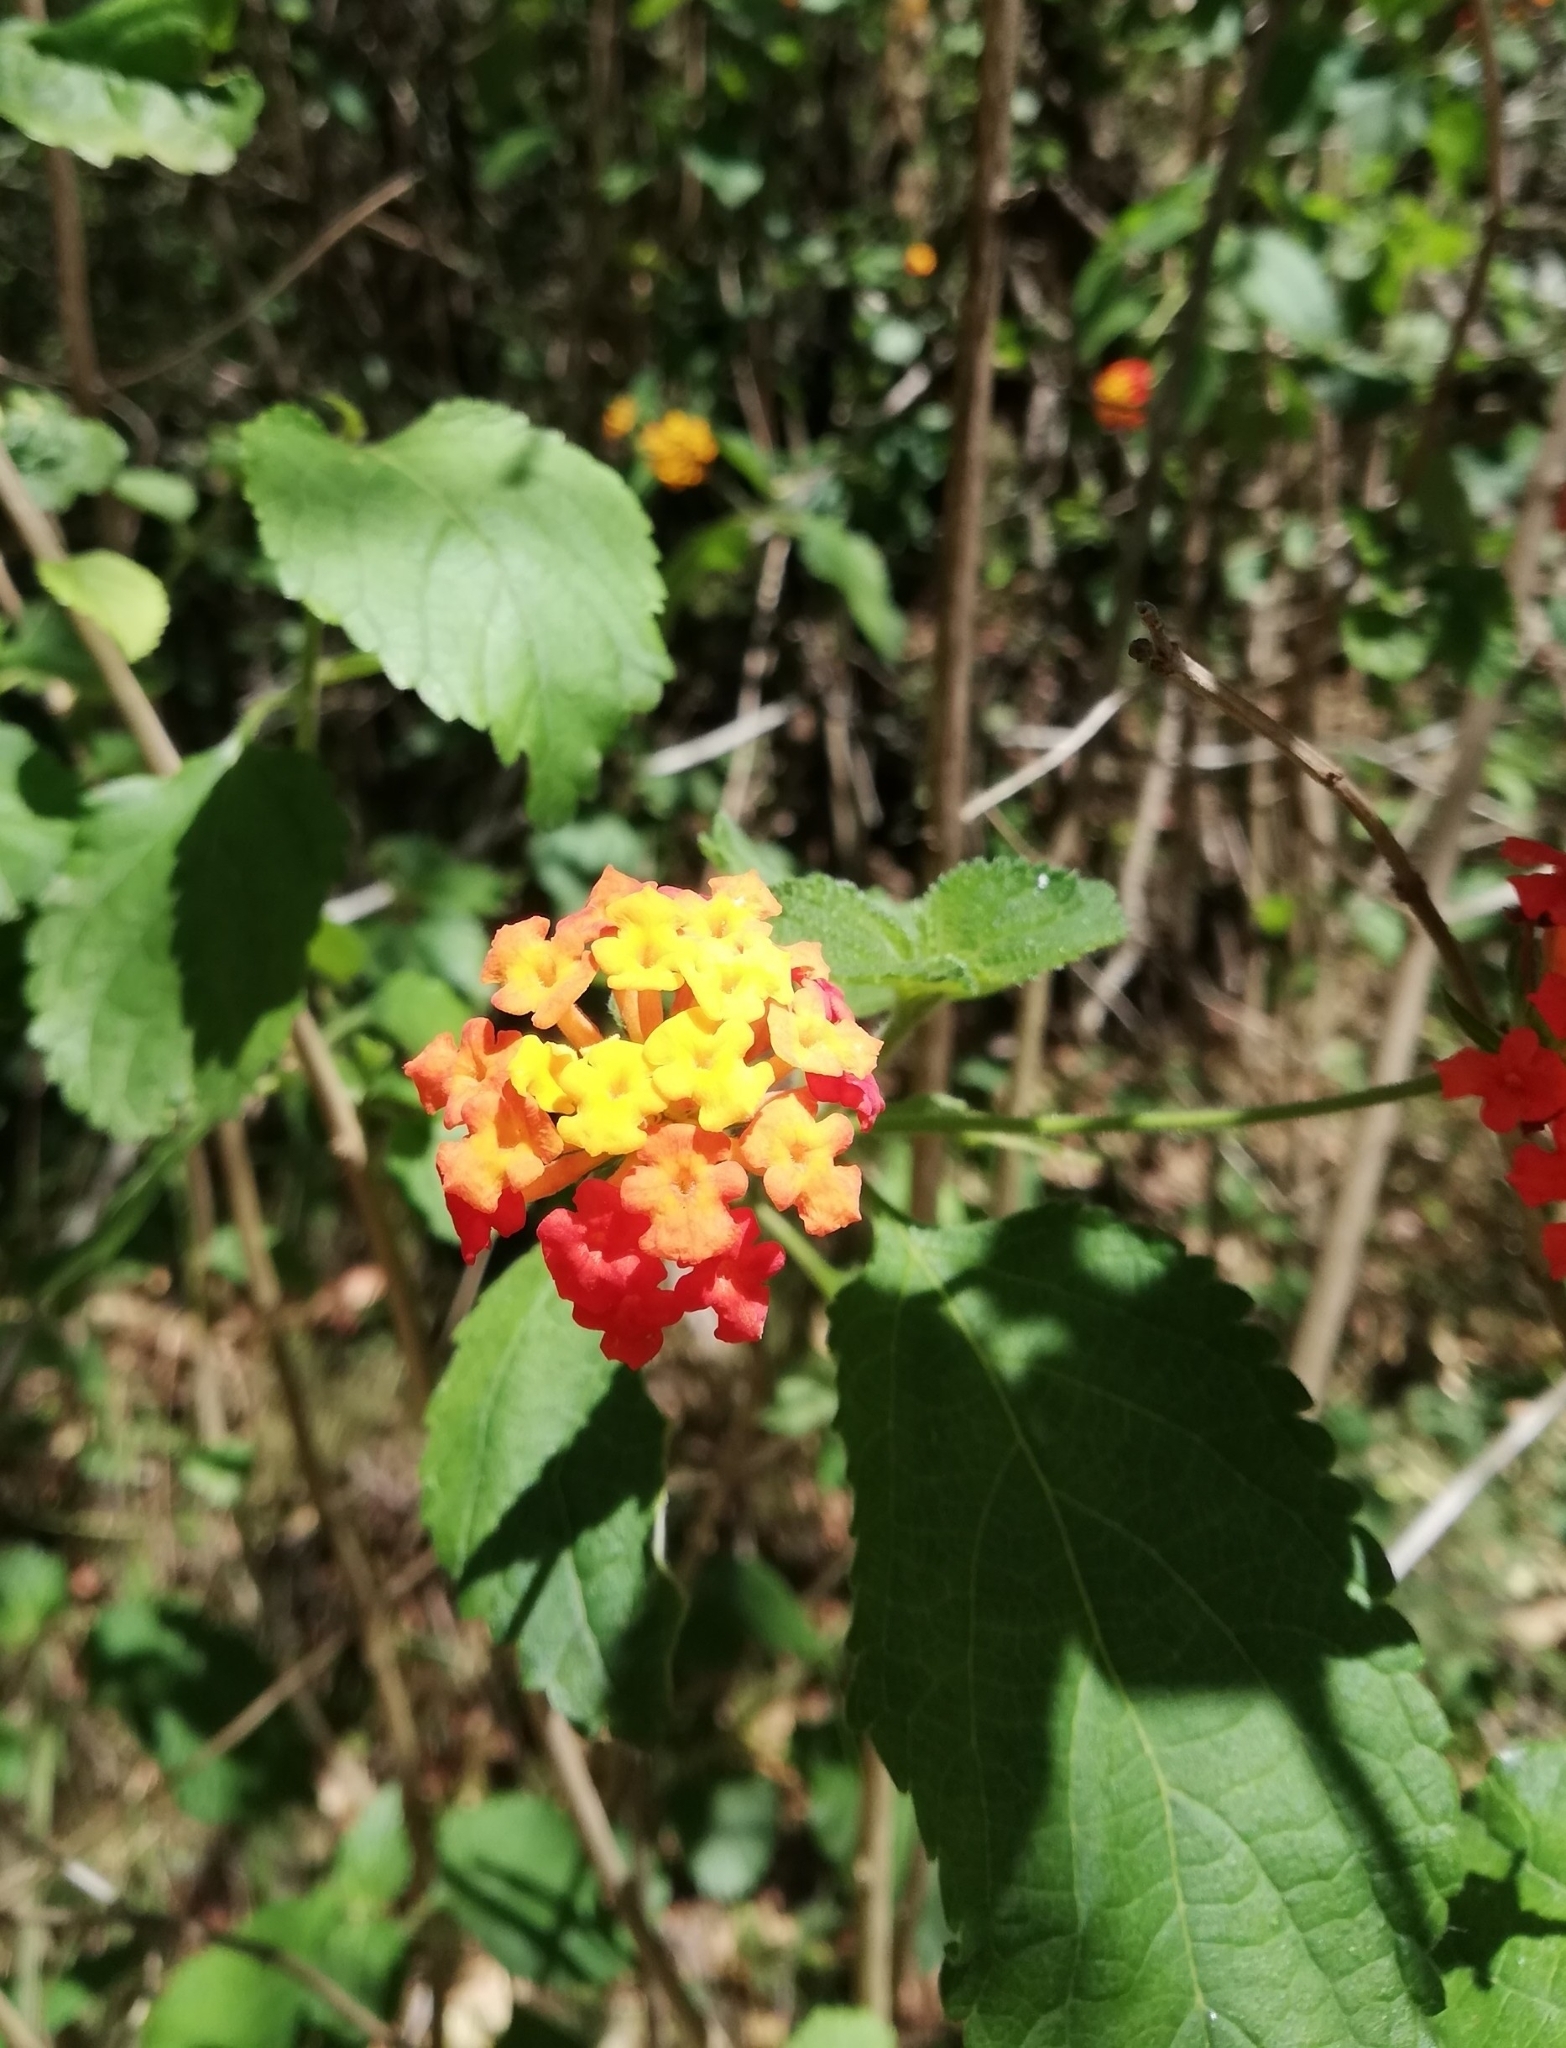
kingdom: Plantae
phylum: Tracheophyta
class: Magnoliopsida
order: Lamiales
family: Verbenaceae
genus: Lantana
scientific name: Lantana camara
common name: Lantana
